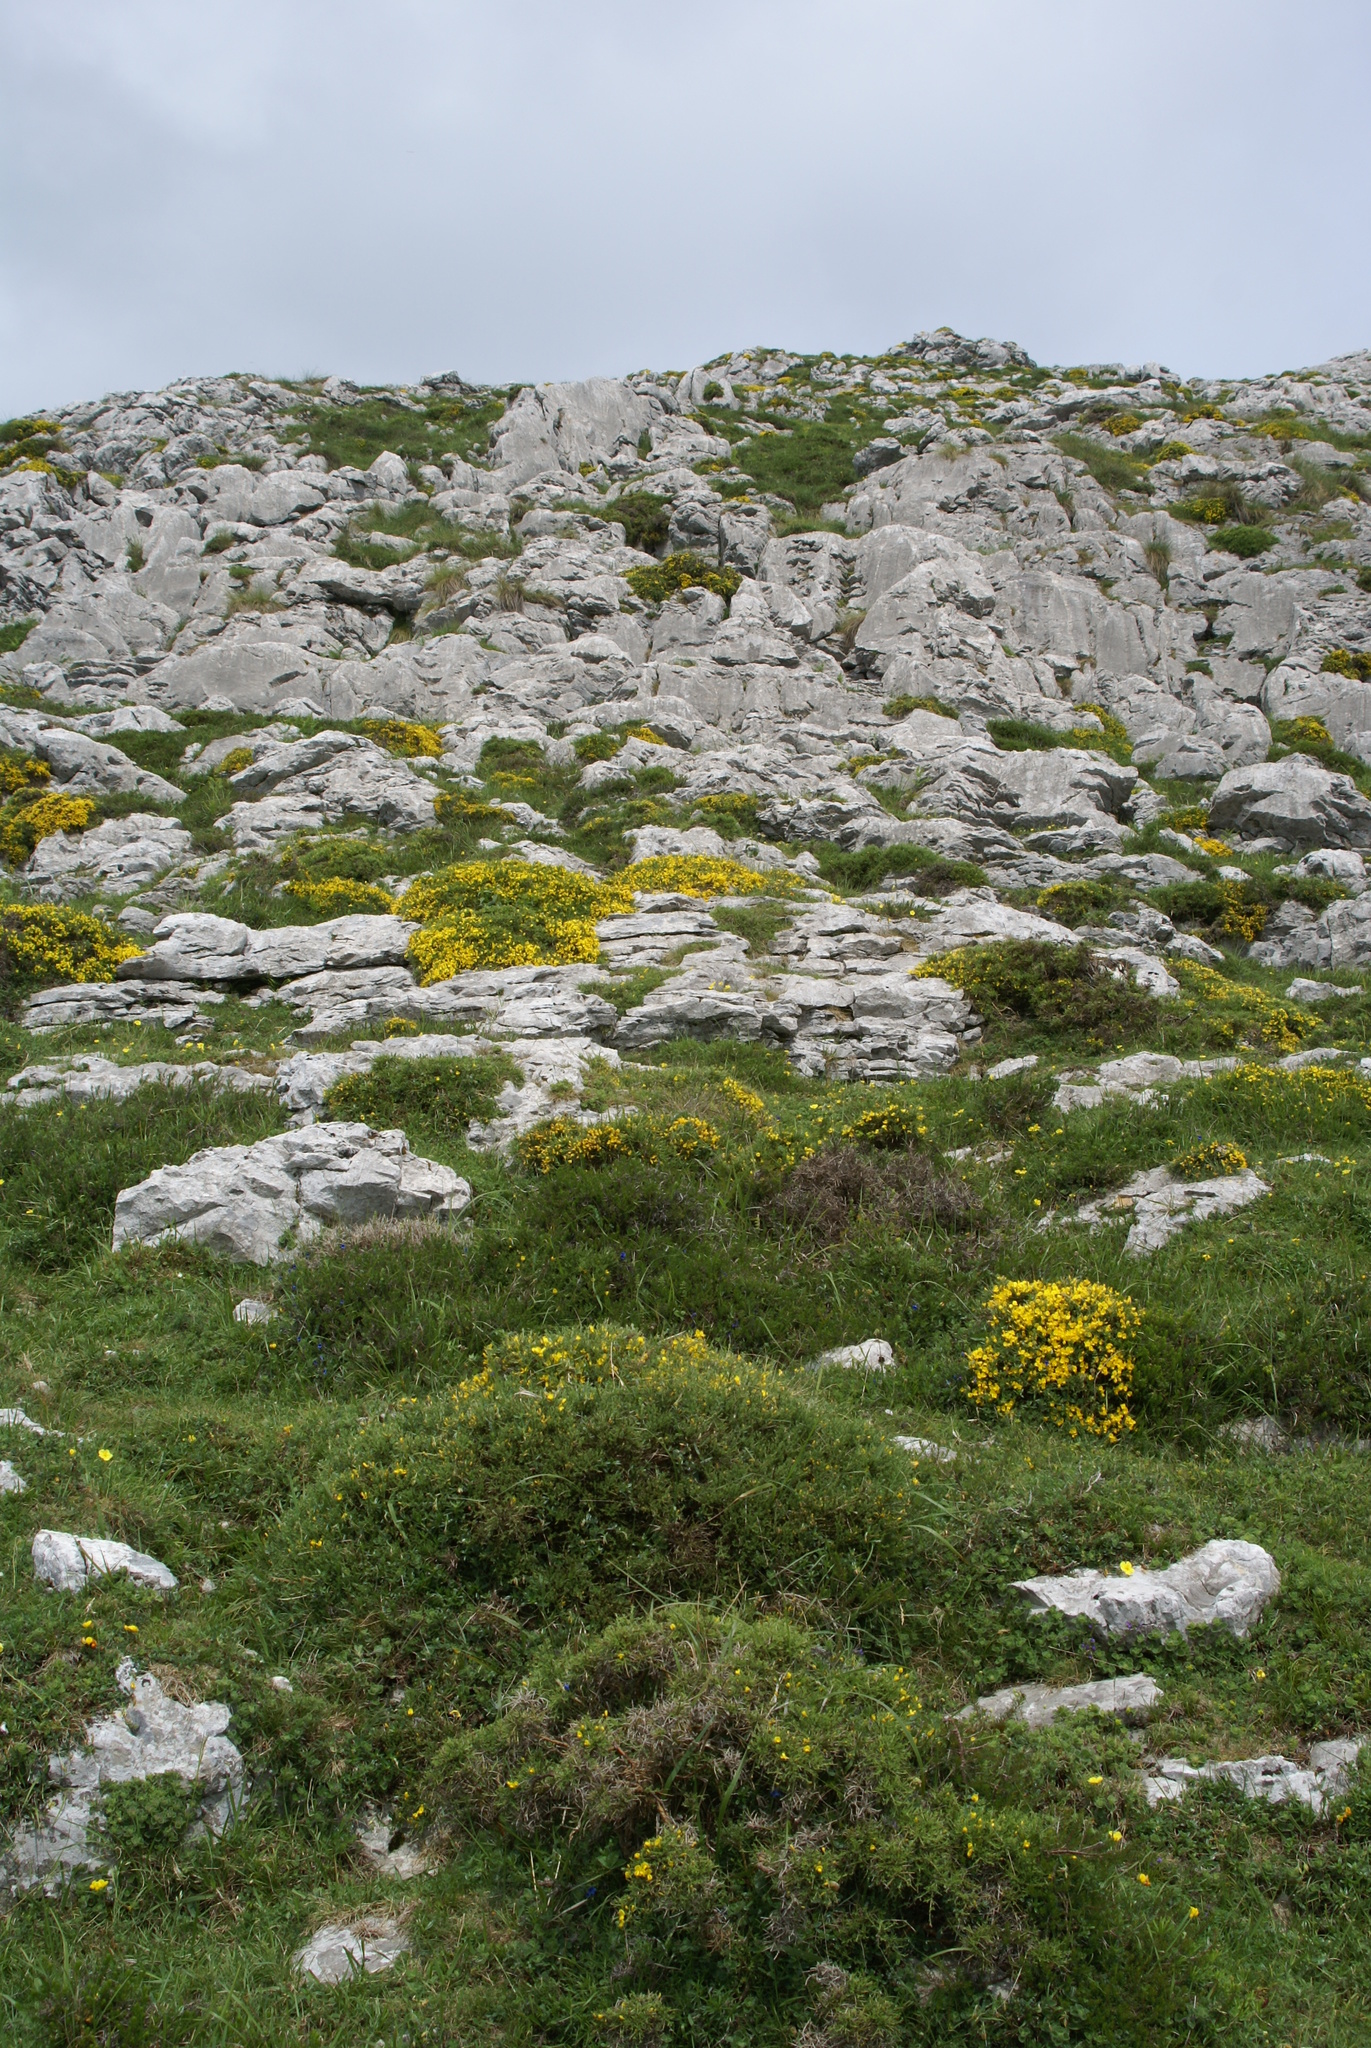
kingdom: Plantae
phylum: Tracheophyta
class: Magnoliopsida
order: Fabales
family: Fabaceae
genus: Genista
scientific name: Genista legionensis
